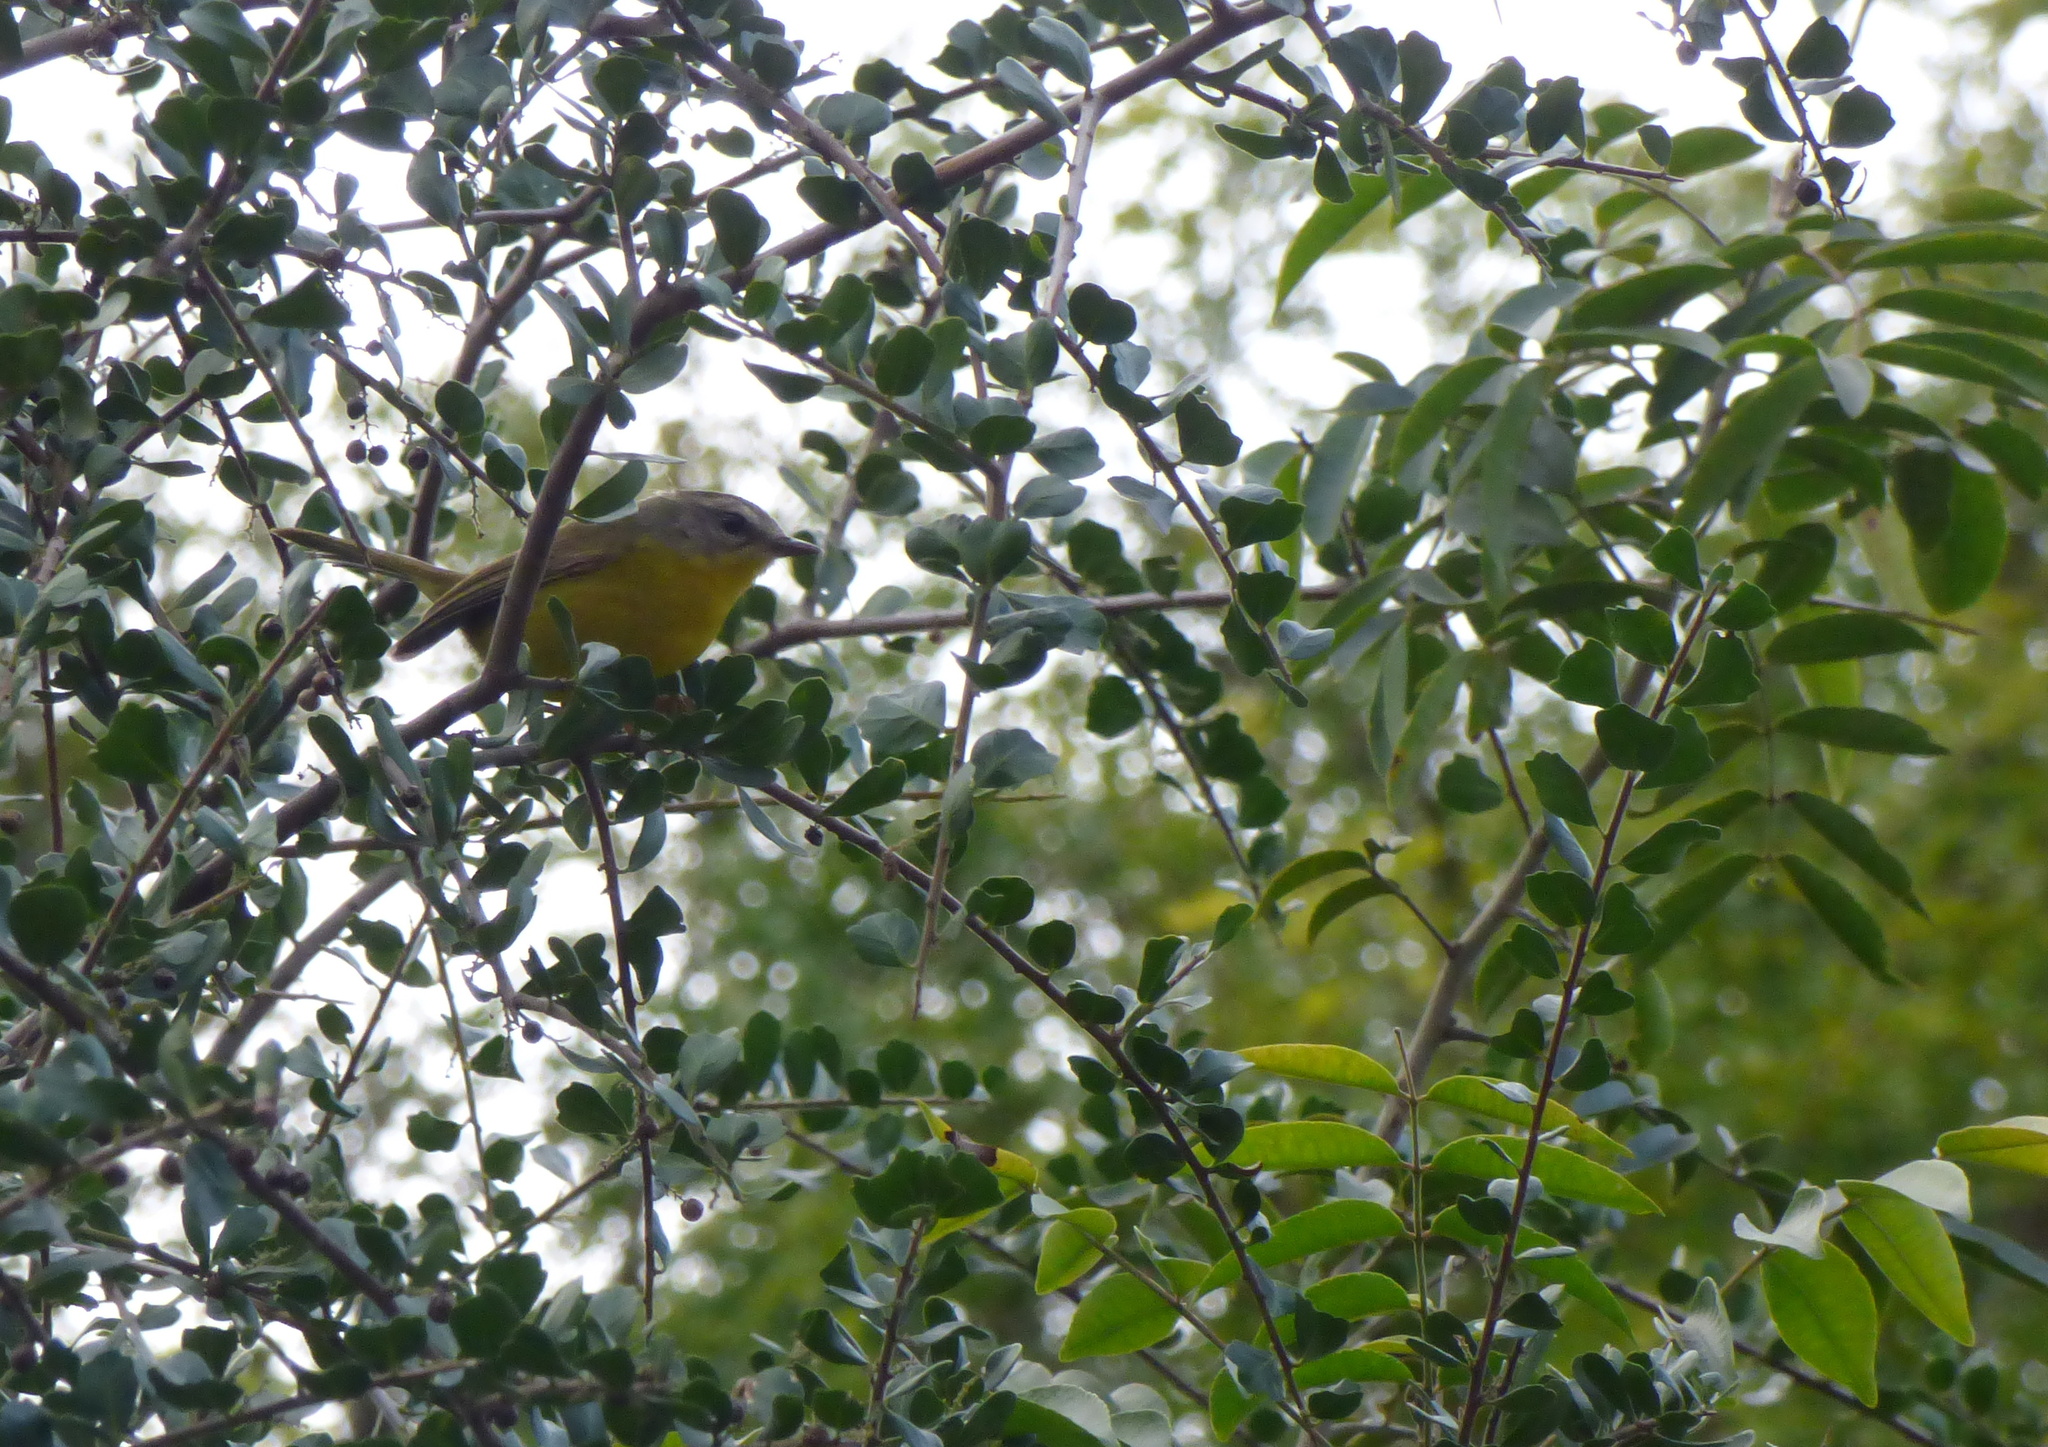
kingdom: Animalia
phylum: Chordata
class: Aves
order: Passeriformes
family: Parulidae
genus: Basileuterus
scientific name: Basileuterus culicivorus
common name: Golden-crowned warbler
